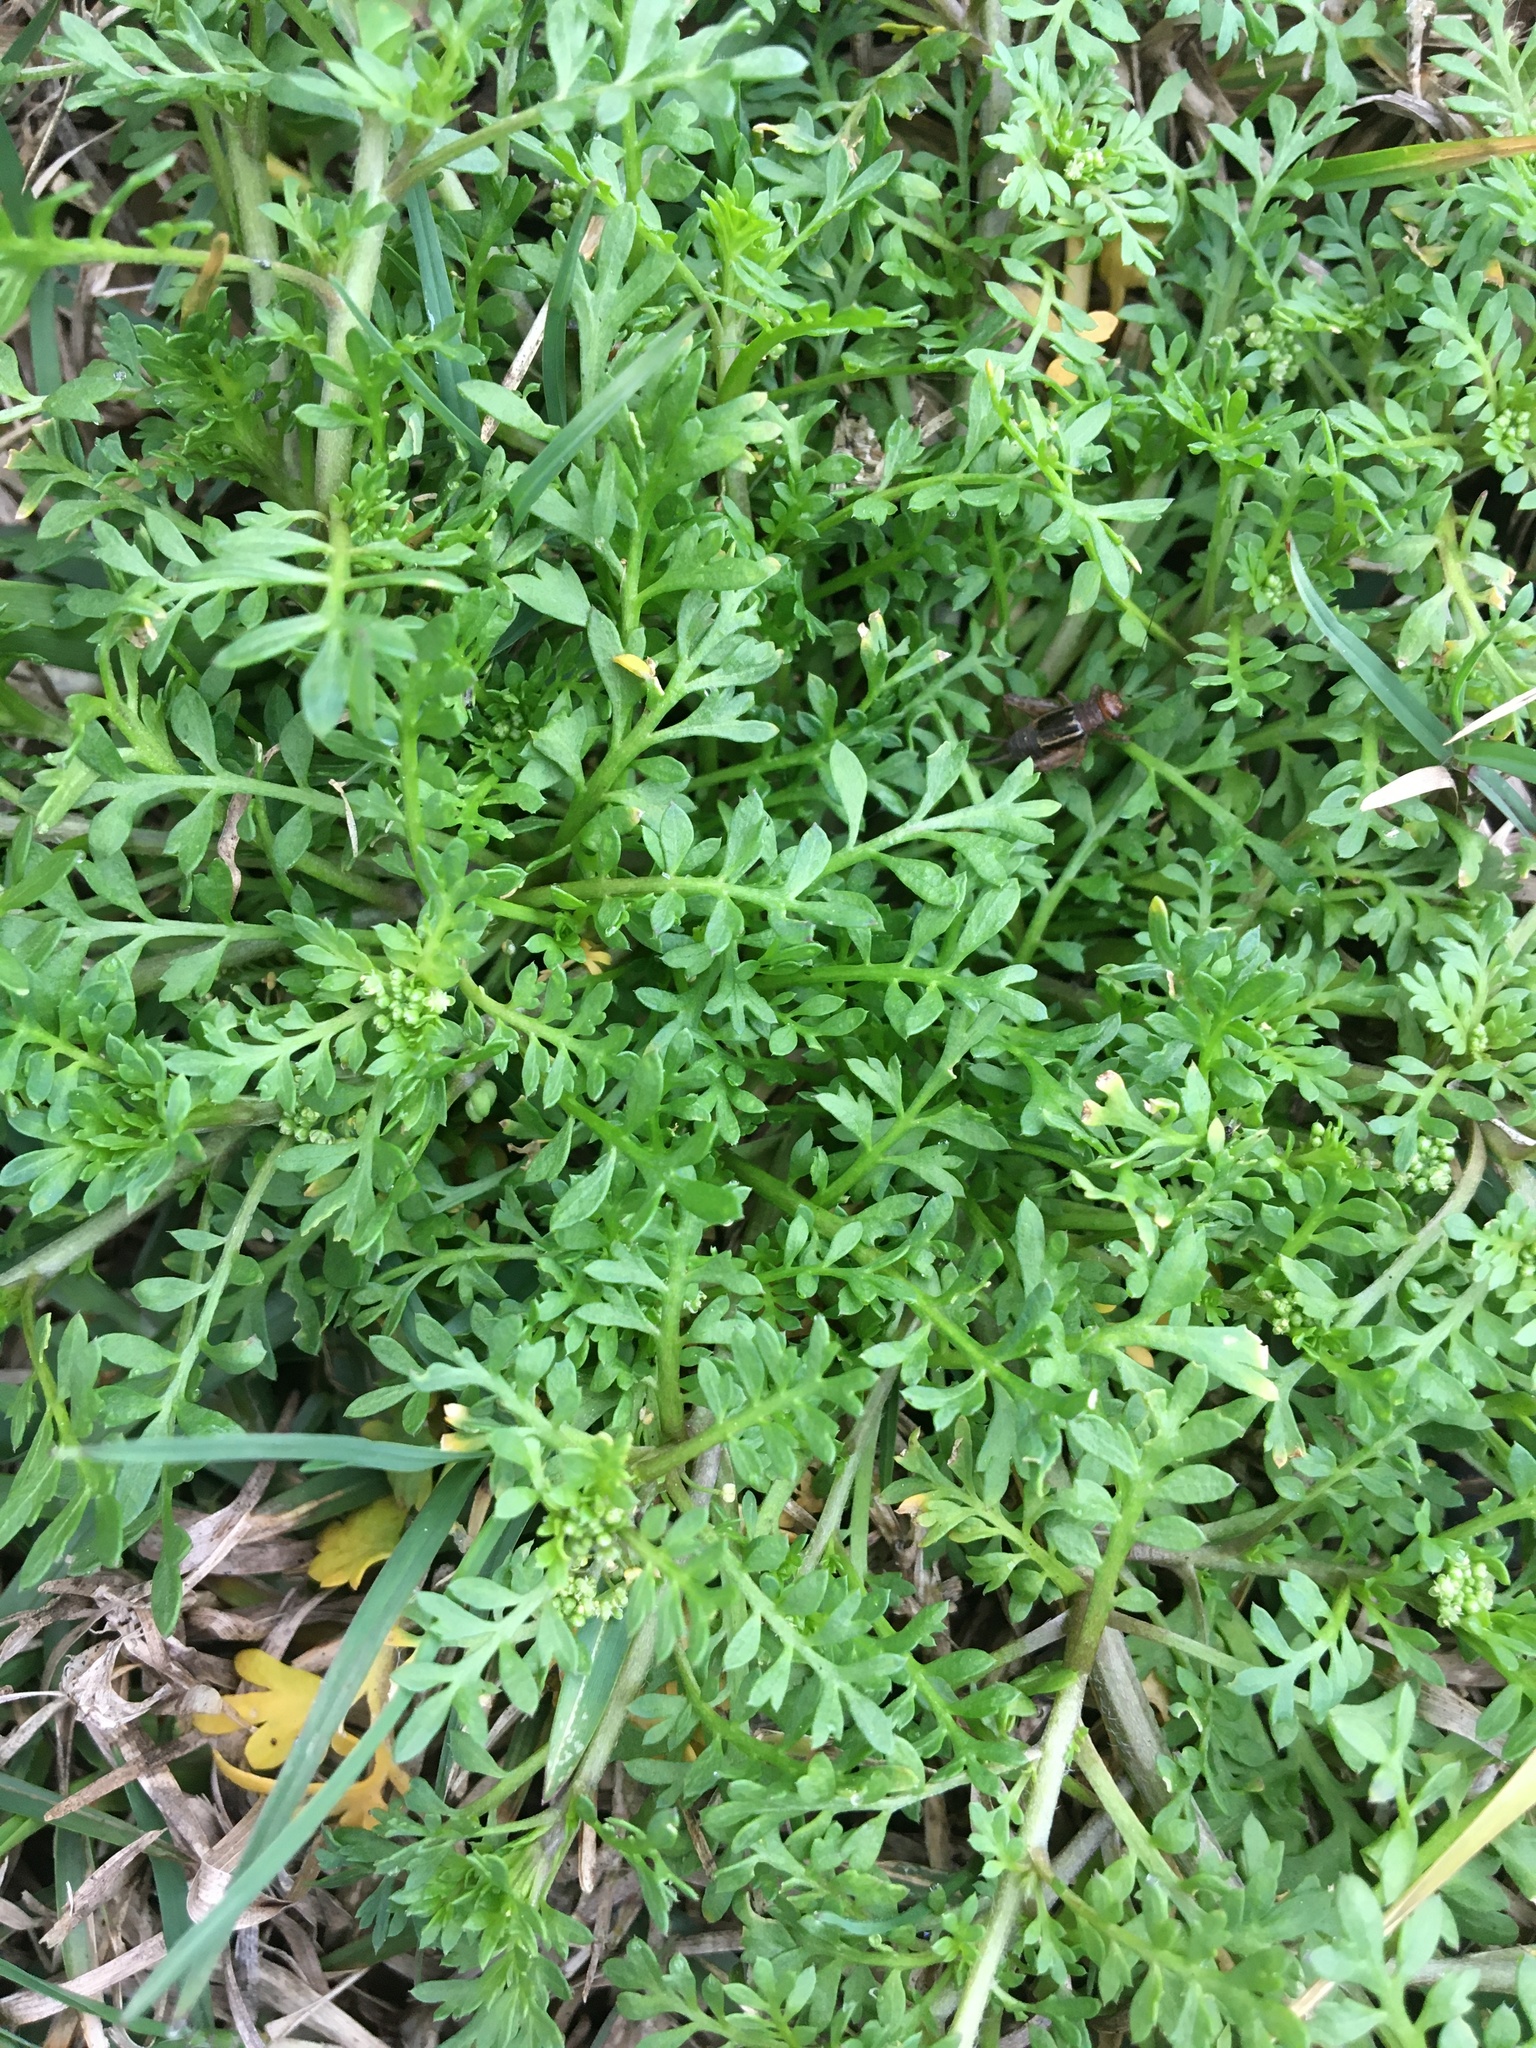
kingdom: Plantae
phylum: Tracheophyta
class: Magnoliopsida
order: Brassicales
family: Brassicaceae
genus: Lepidium
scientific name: Lepidium didymum
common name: Lesser swinecress
